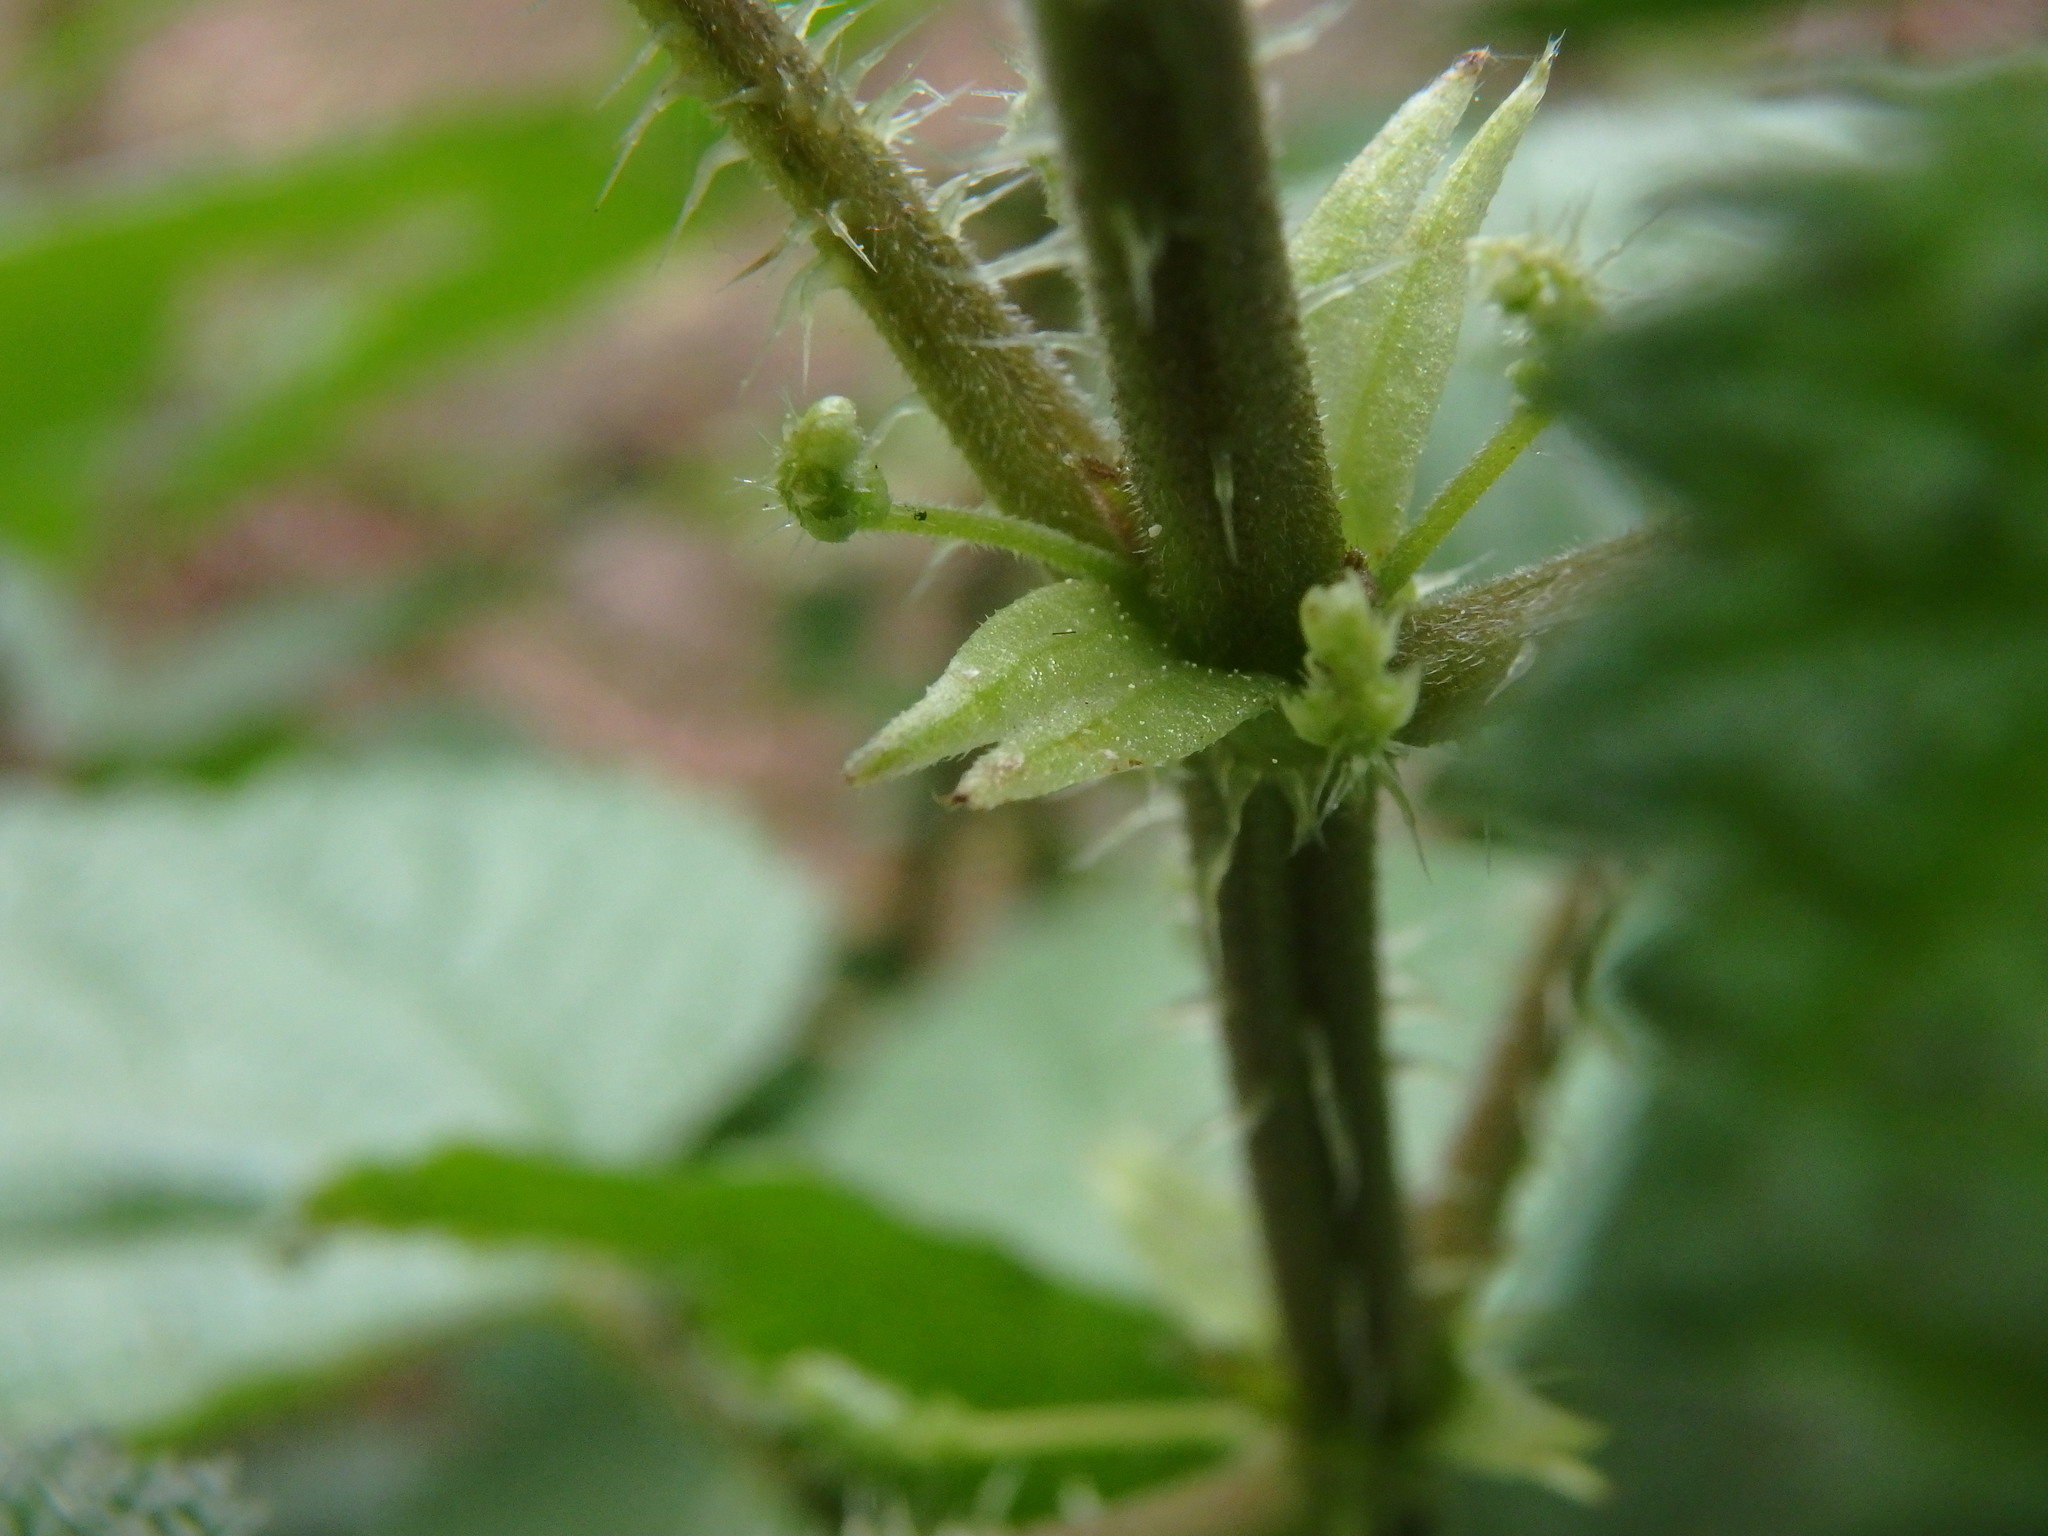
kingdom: Plantae
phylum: Tracheophyta
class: Magnoliopsida
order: Rosales
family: Urticaceae
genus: Urtica
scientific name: Urtica morifolia
